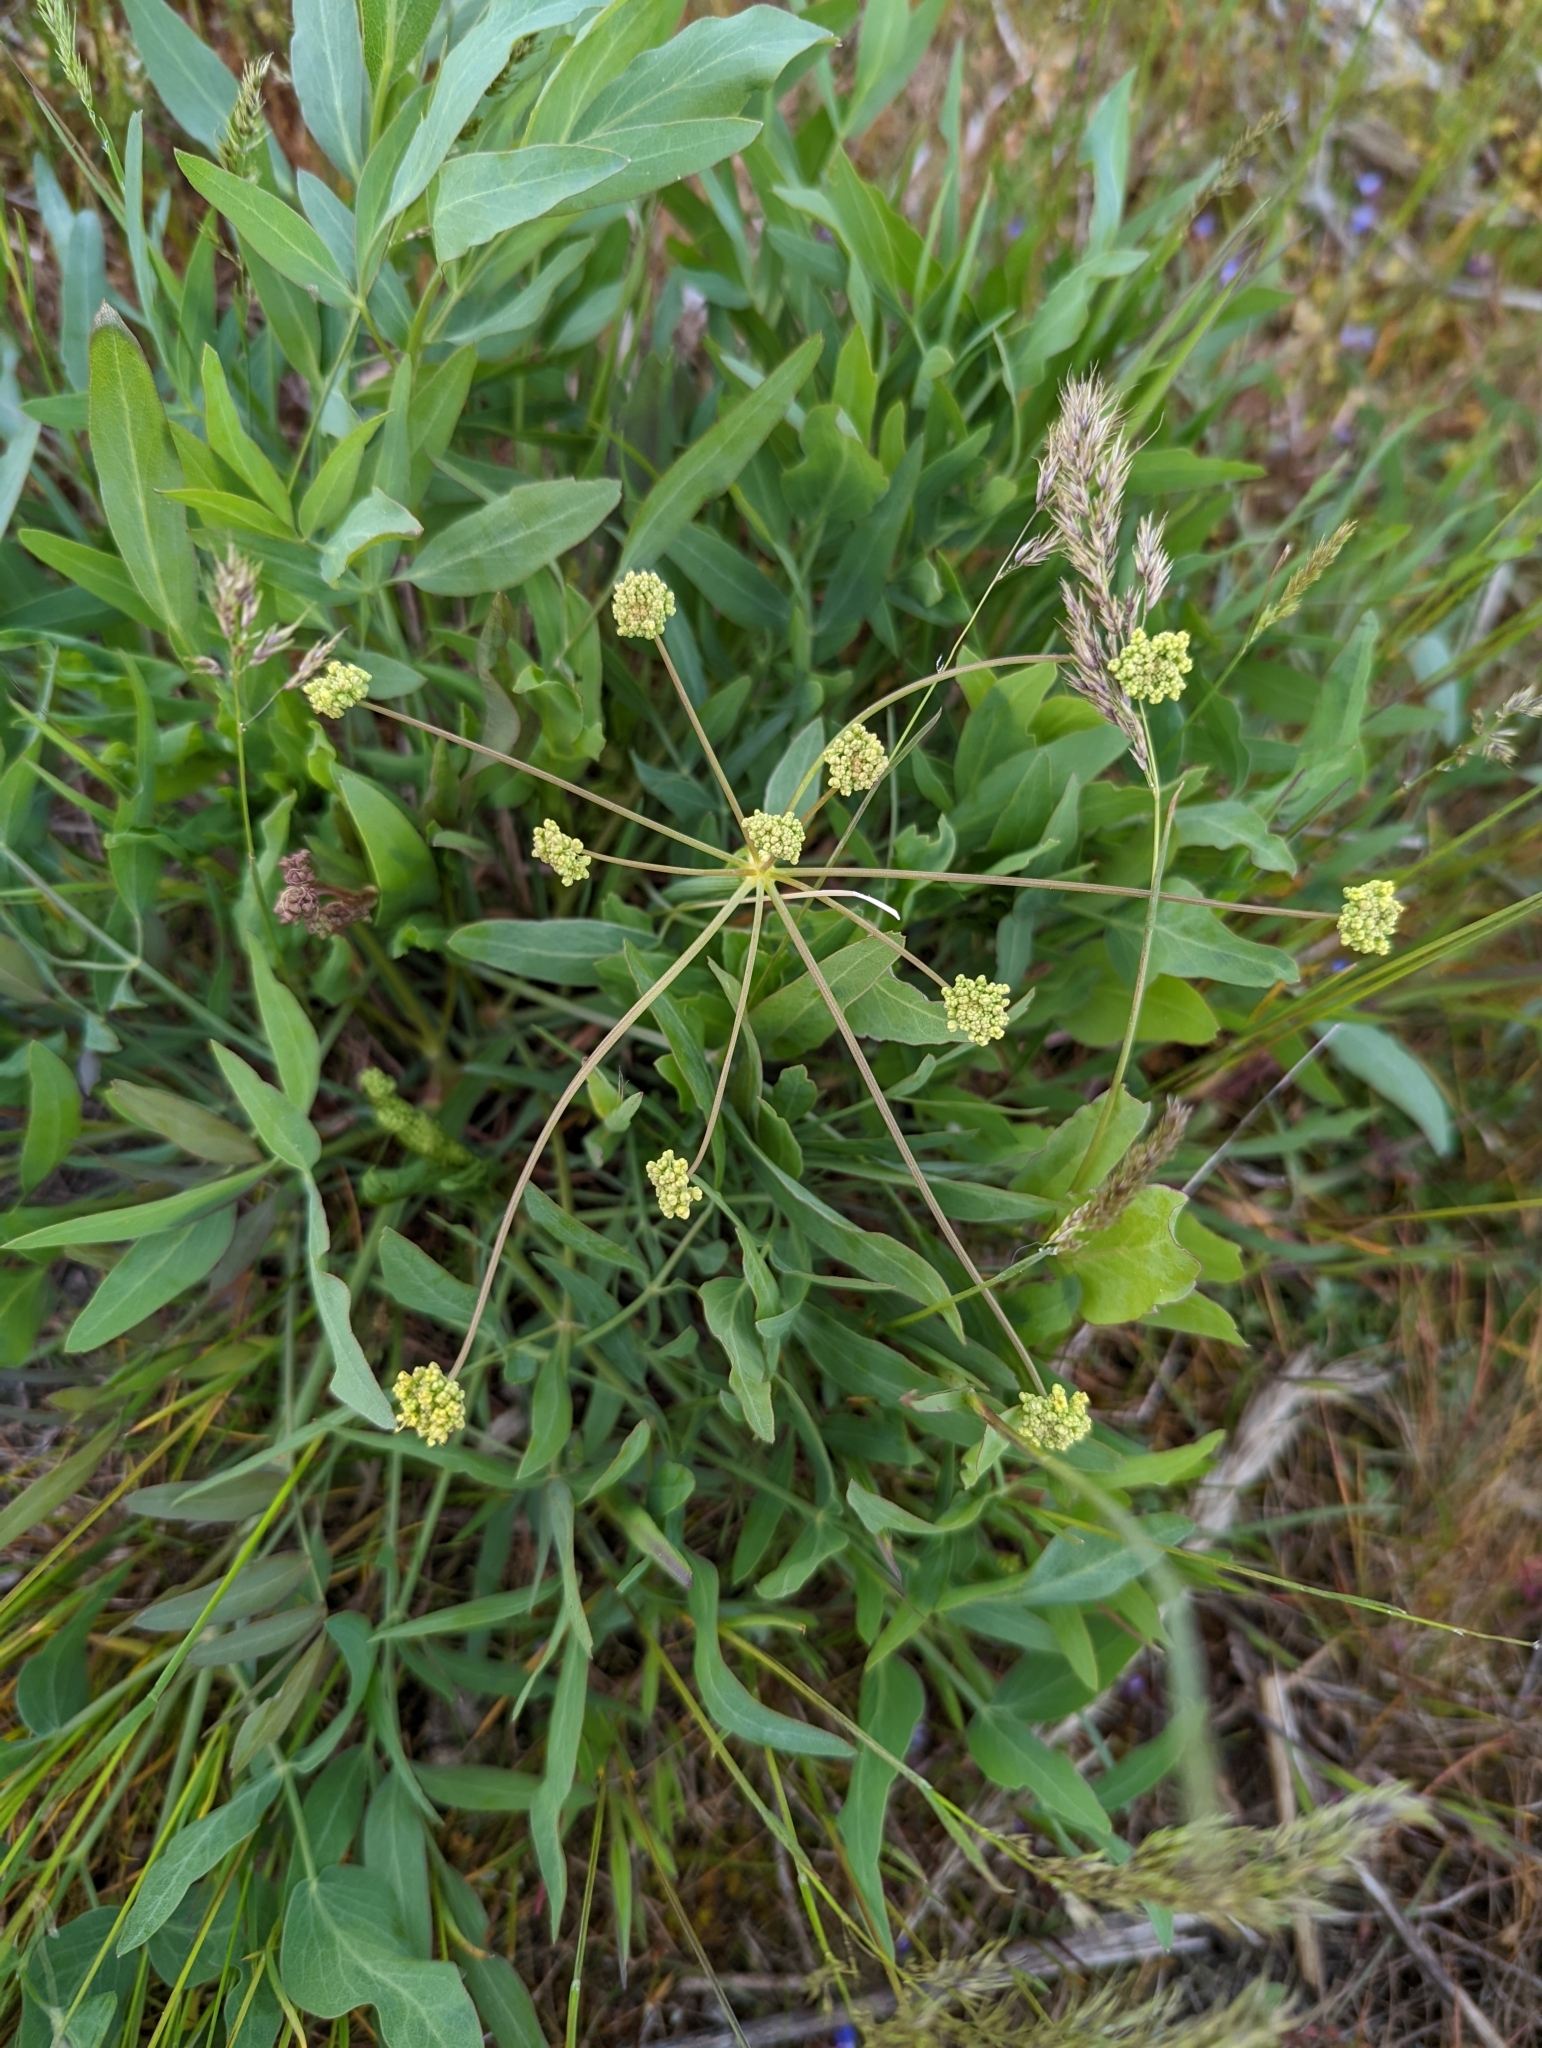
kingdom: Plantae
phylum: Tracheophyta
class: Magnoliopsida
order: Apiales
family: Apiaceae
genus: Lomatium
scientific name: Lomatium nudicaule
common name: Pestle lomatium
